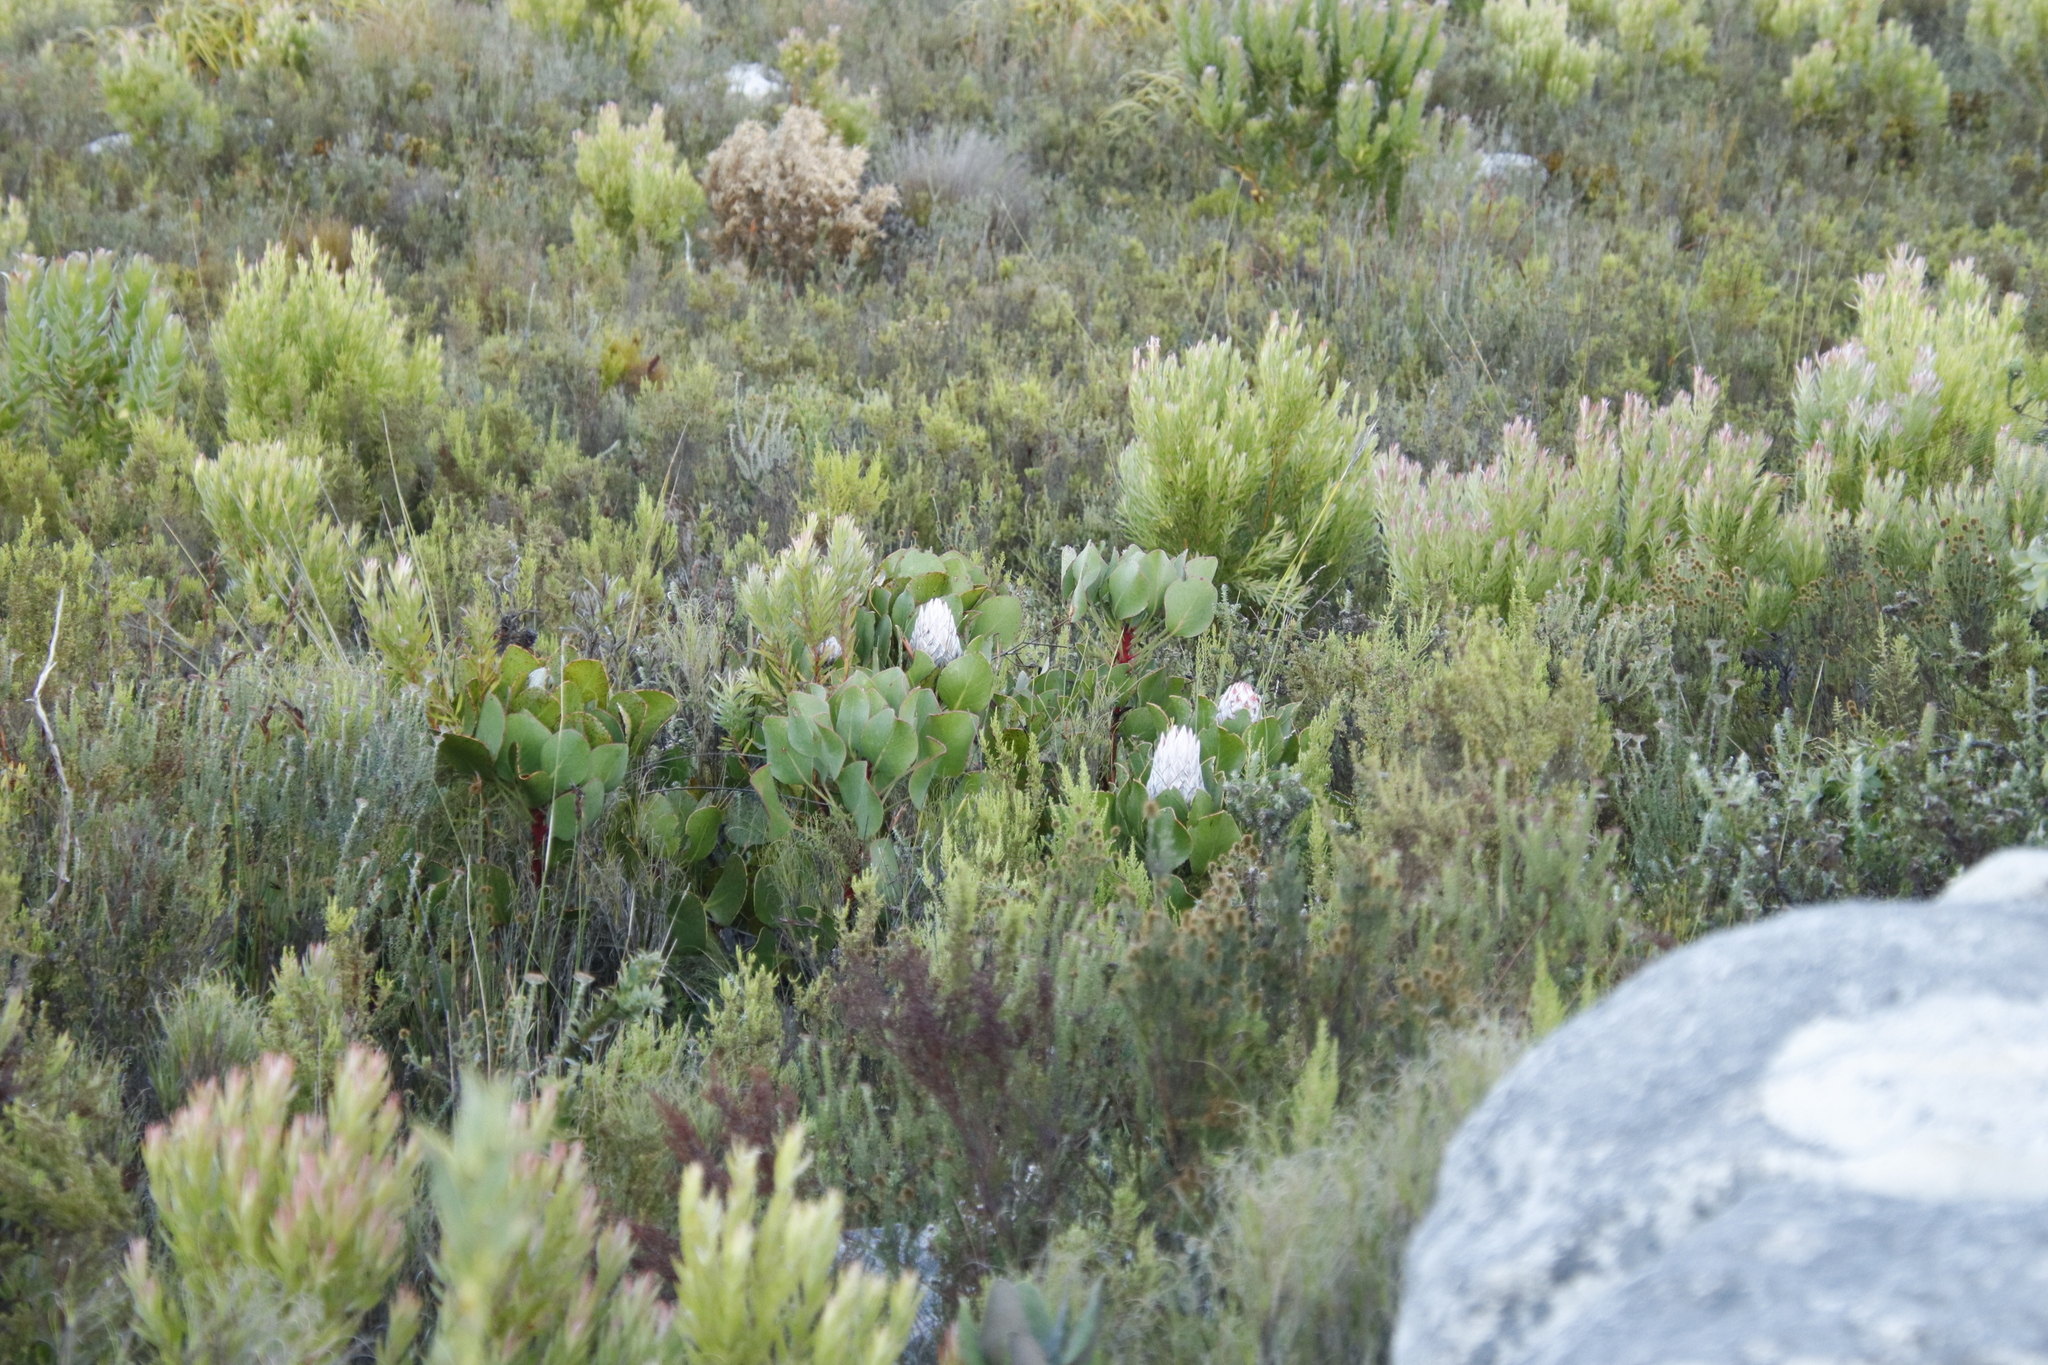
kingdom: Plantae
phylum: Tracheophyta
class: Magnoliopsida
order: Proteales
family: Proteaceae
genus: Protea
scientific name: Protea cynaroides
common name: King protea
